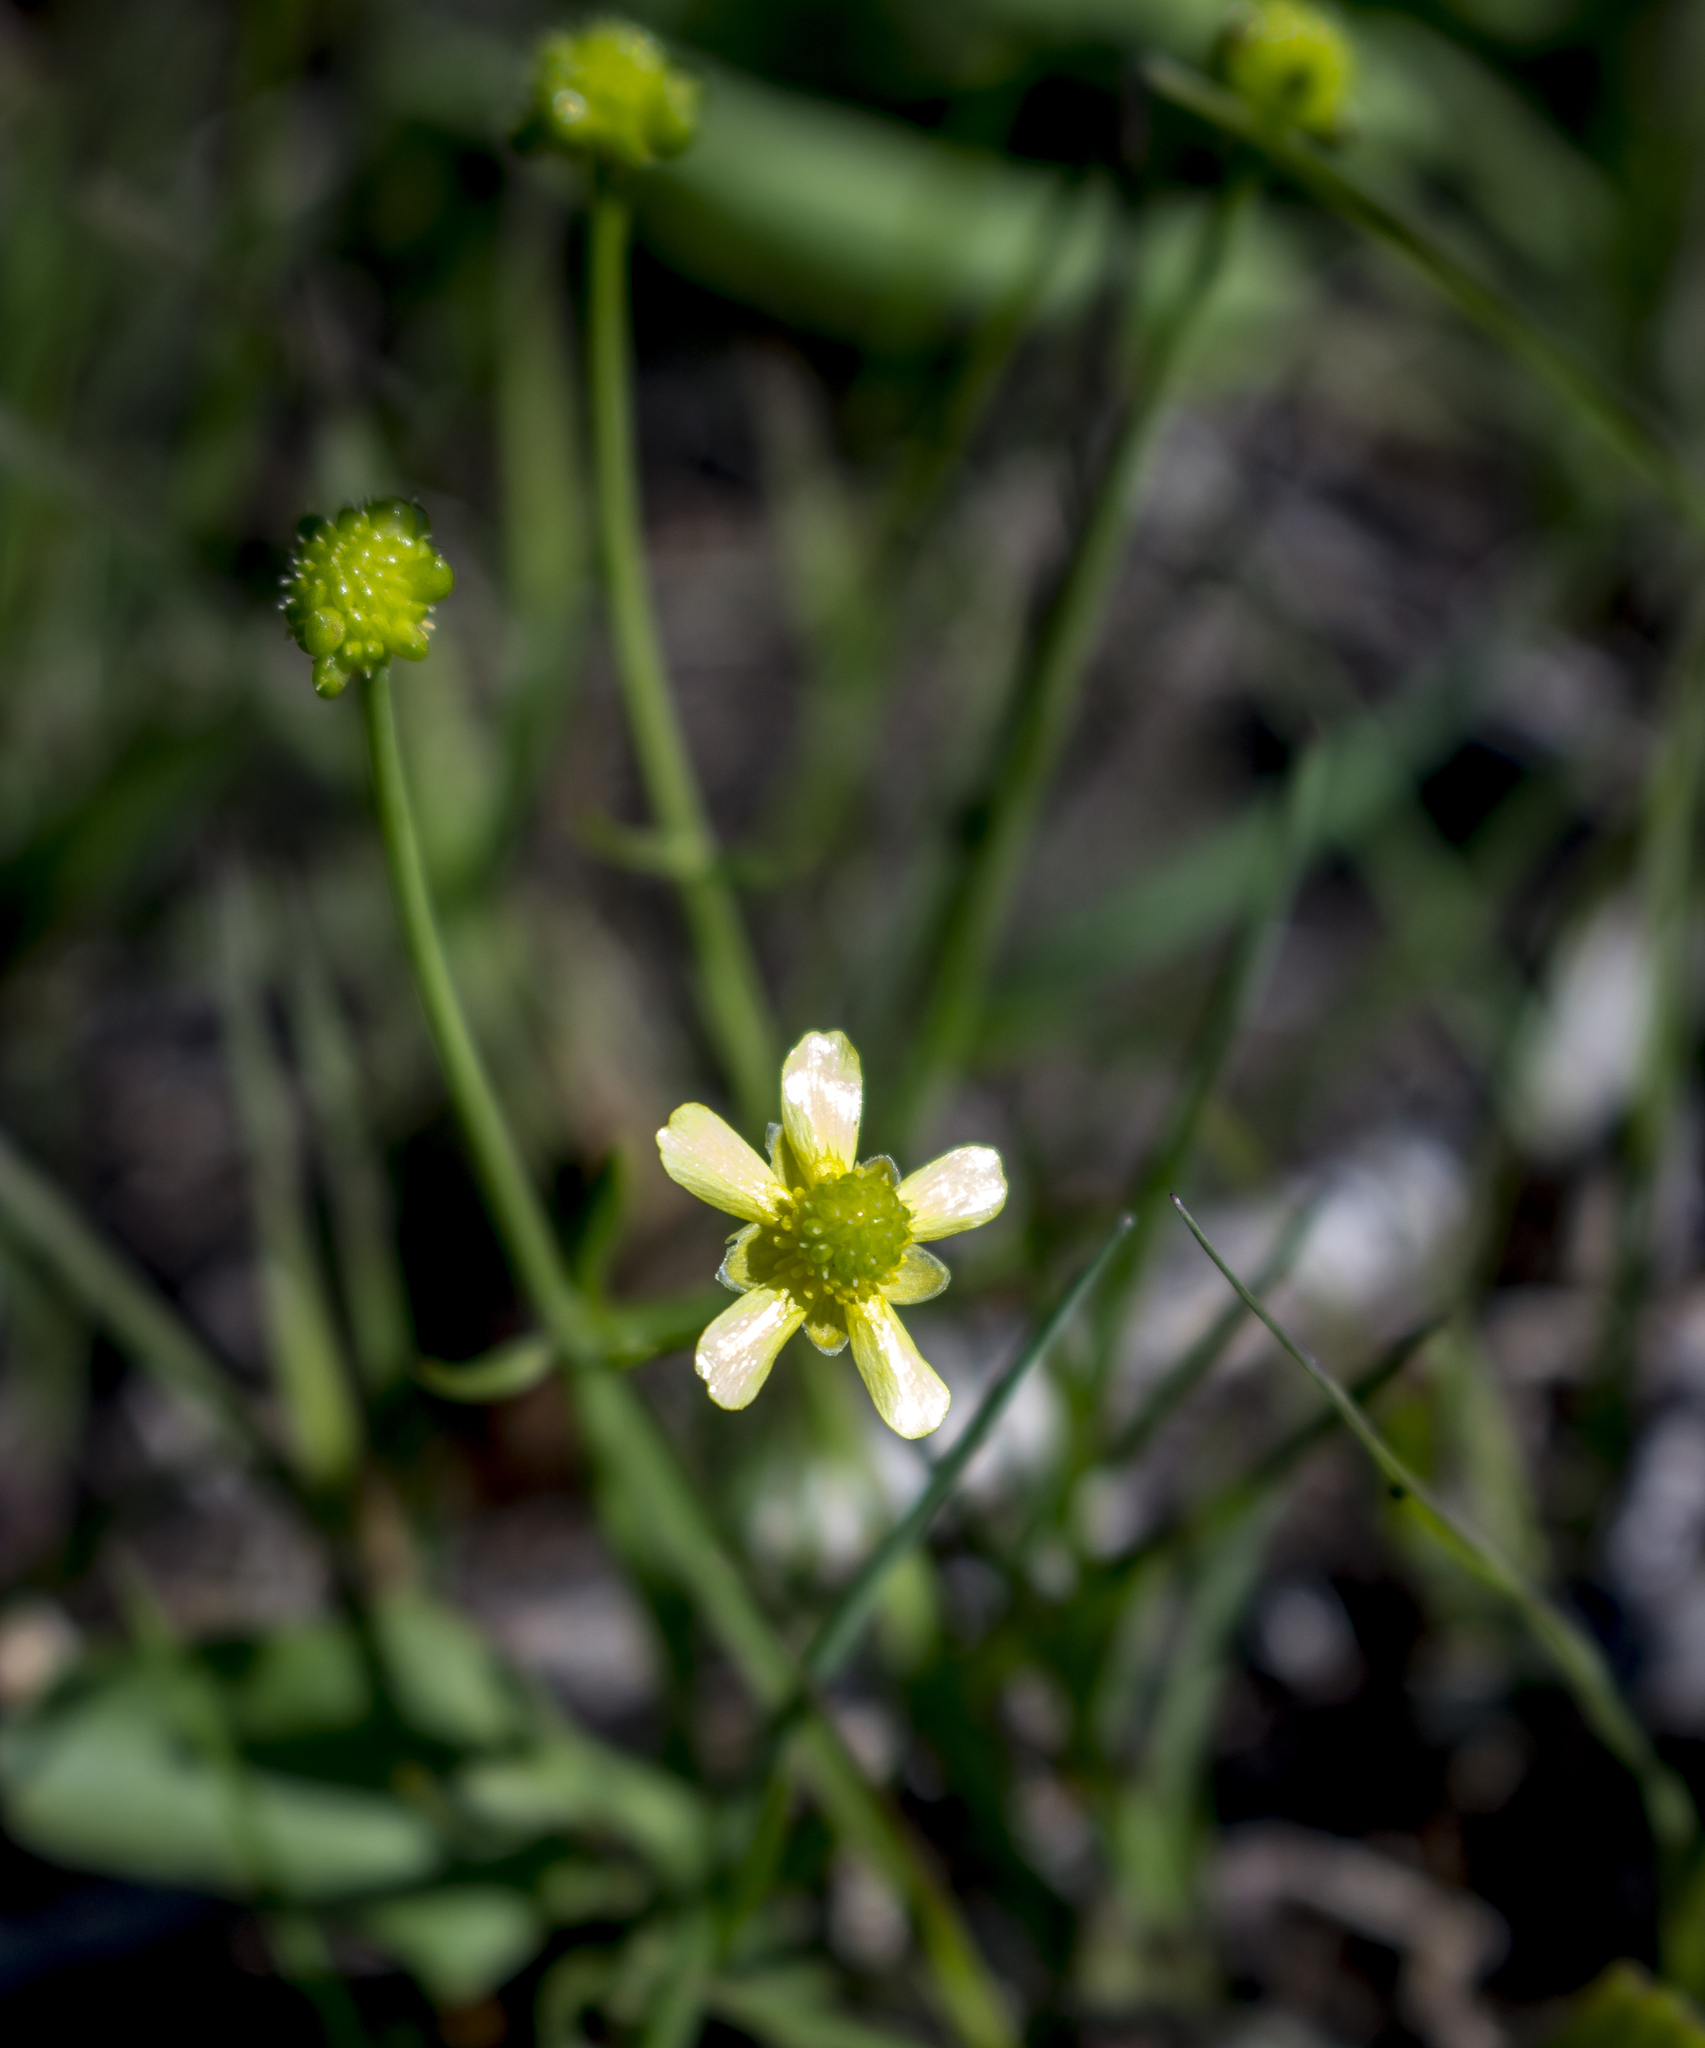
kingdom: Plantae
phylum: Tracheophyta
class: Magnoliopsida
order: Ranunculales
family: Ranunculaceae
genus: Ranunculus
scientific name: Ranunculus rhomboideus
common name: Prairie buttercup
